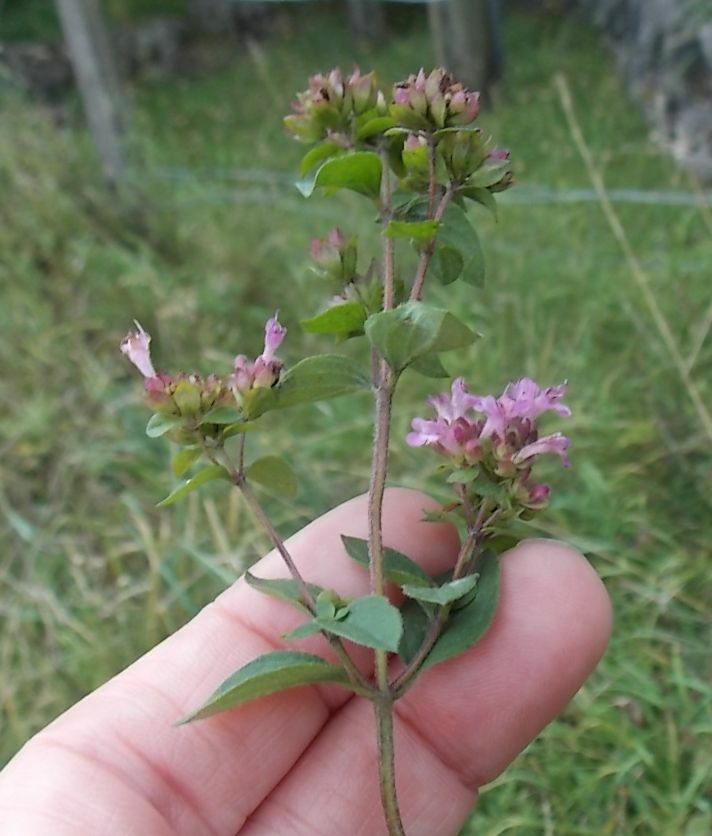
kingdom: Plantae
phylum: Tracheophyta
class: Magnoliopsida
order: Lamiales
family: Lamiaceae
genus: Origanum
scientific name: Origanum vulgare
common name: Wild marjoram
